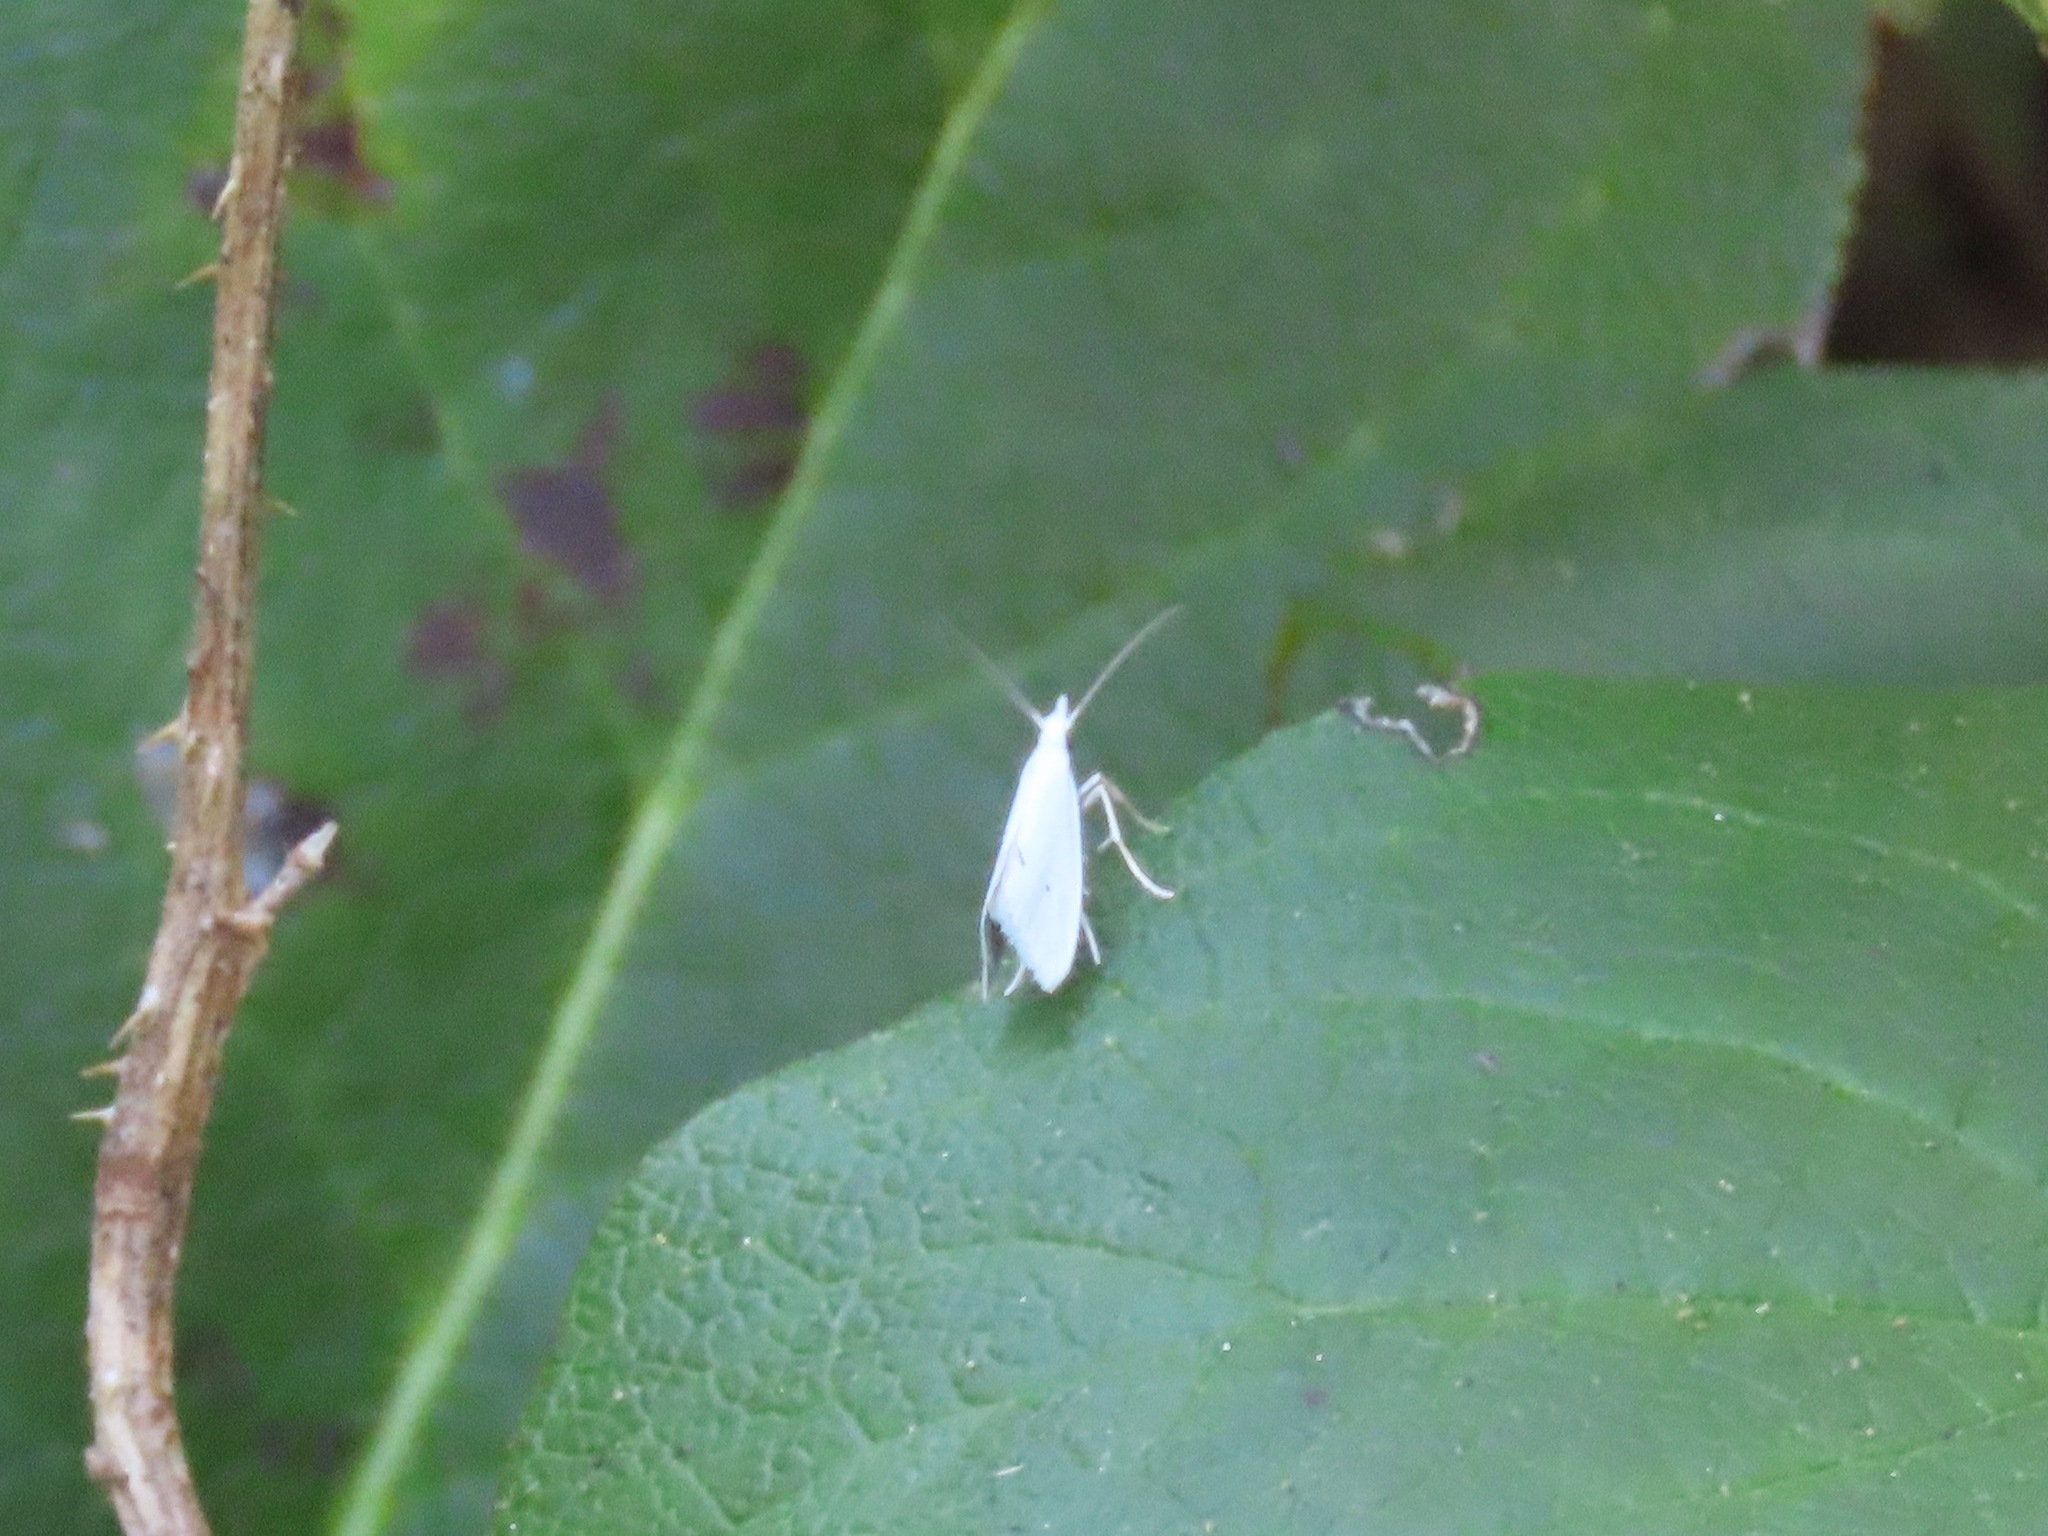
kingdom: Animalia
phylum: Arthropoda
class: Insecta
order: Lepidoptera
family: Yponomeutidae
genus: Eucalantica
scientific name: Eucalantica polita
